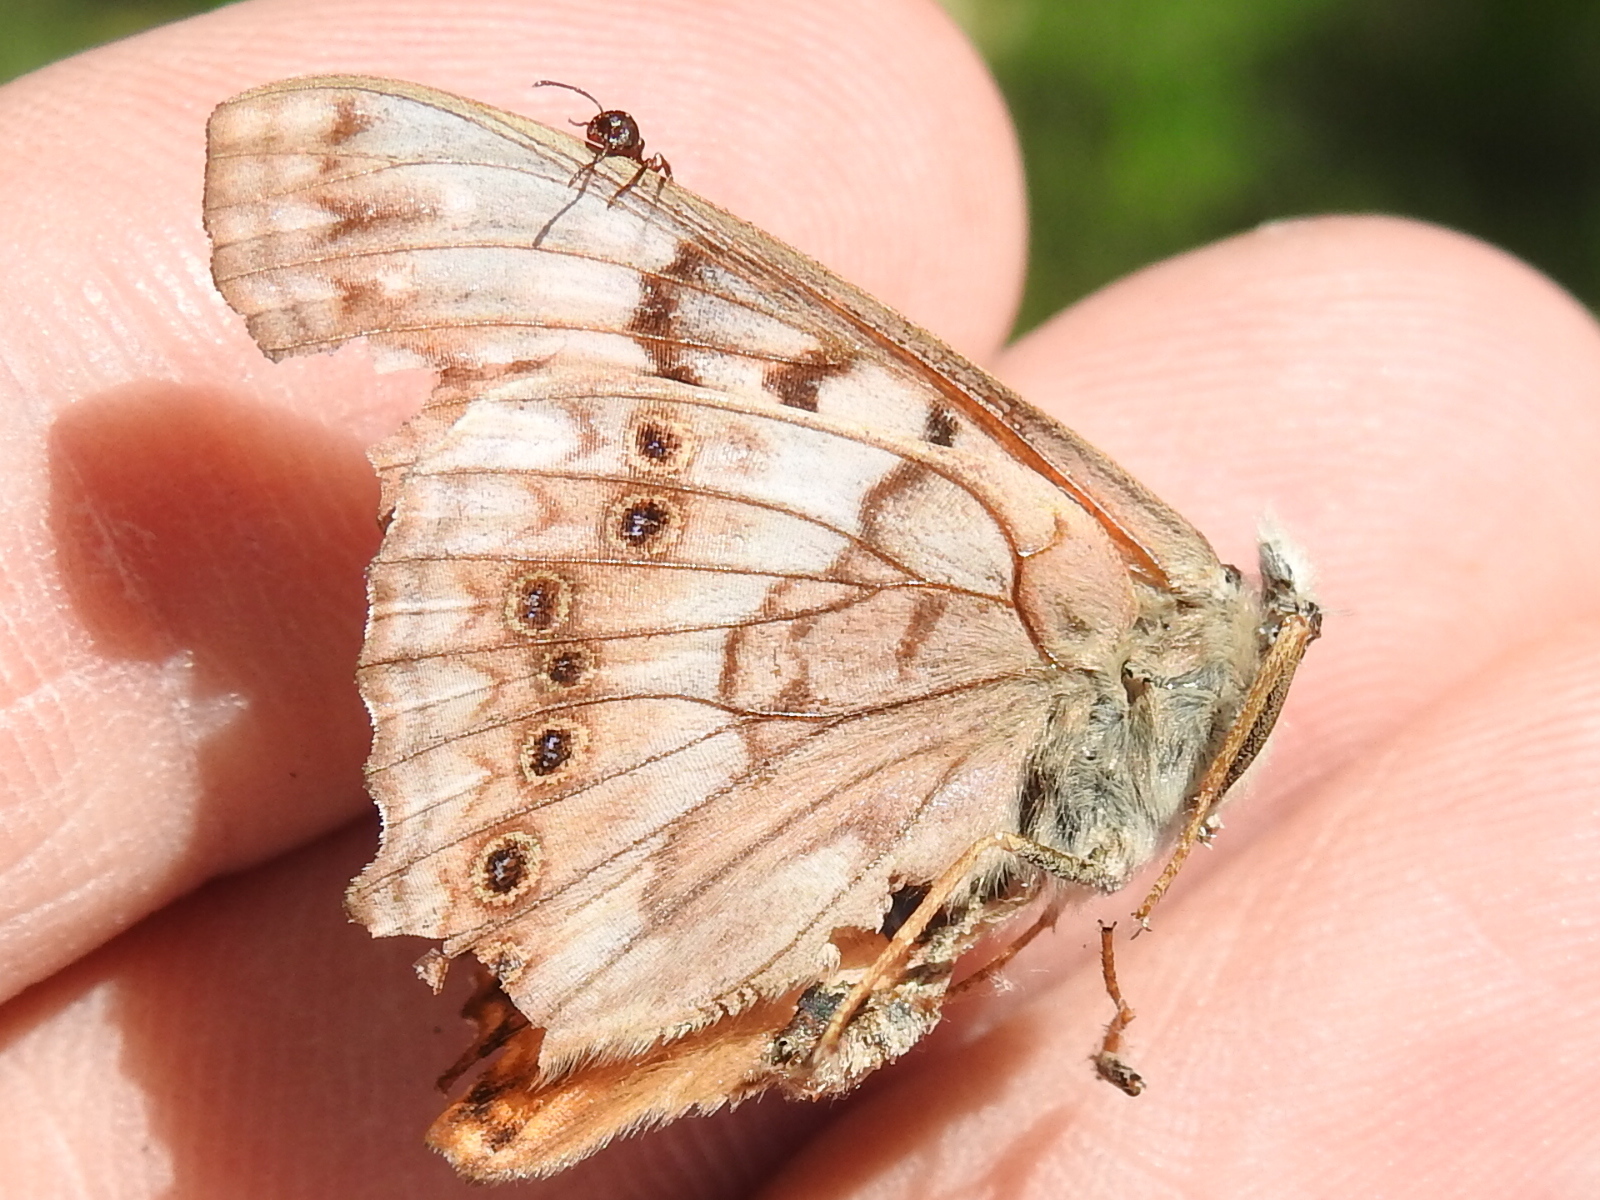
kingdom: Animalia
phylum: Arthropoda
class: Insecta
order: Lepidoptera
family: Nymphalidae
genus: Asterocampa
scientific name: Asterocampa clyton
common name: Tawny emperor
